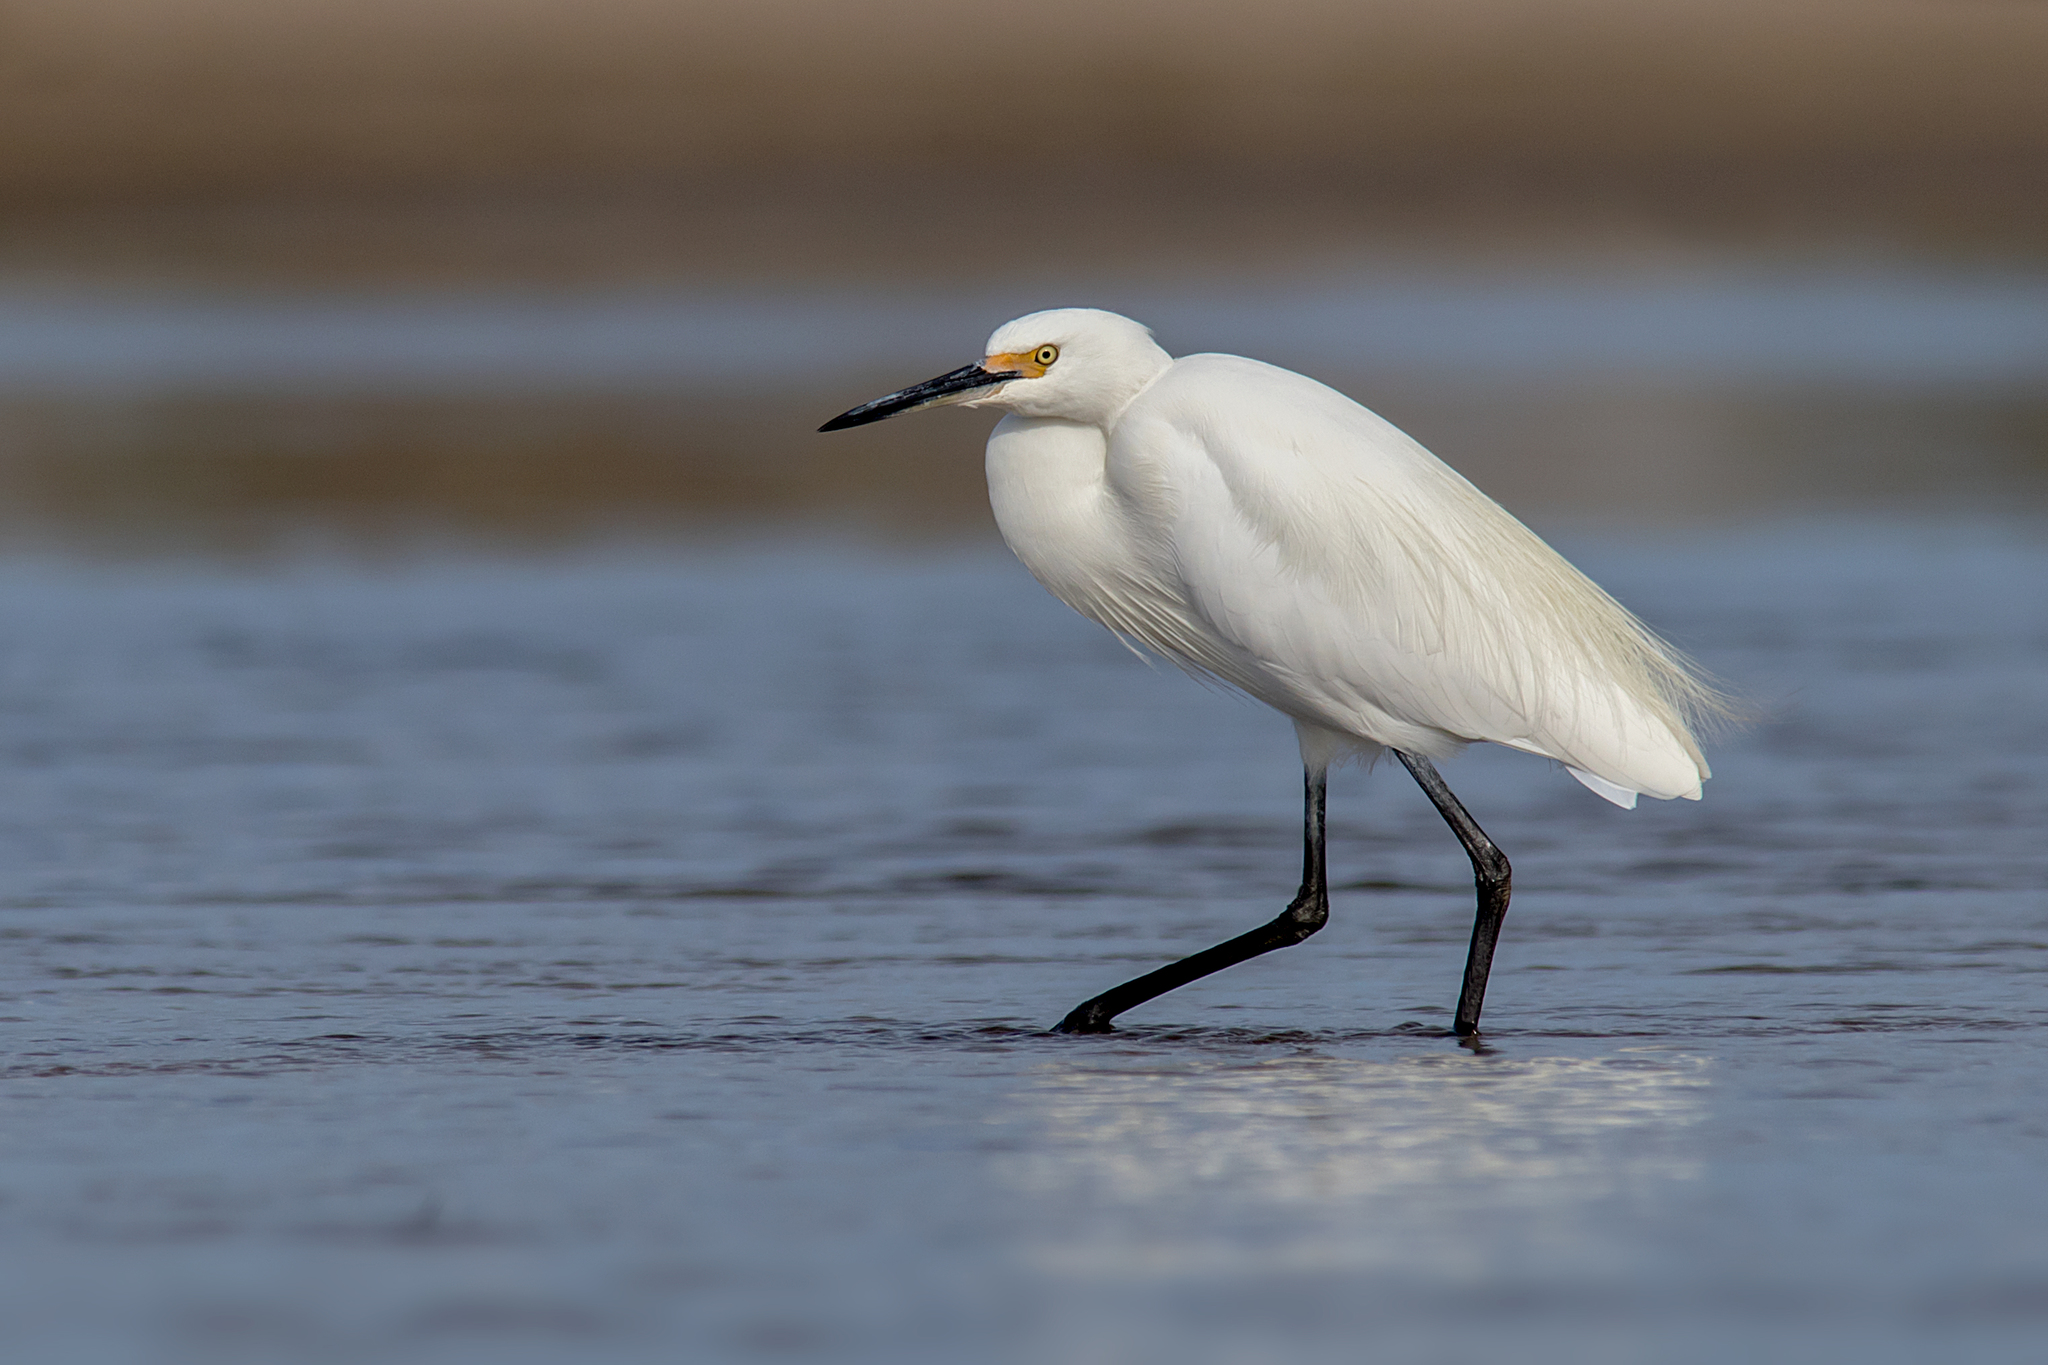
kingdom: Animalia
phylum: Chordata
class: Aves
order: Pelecaniformes
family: Ardeidae
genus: Egretta
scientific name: Egretta garzetta
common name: Little egret
